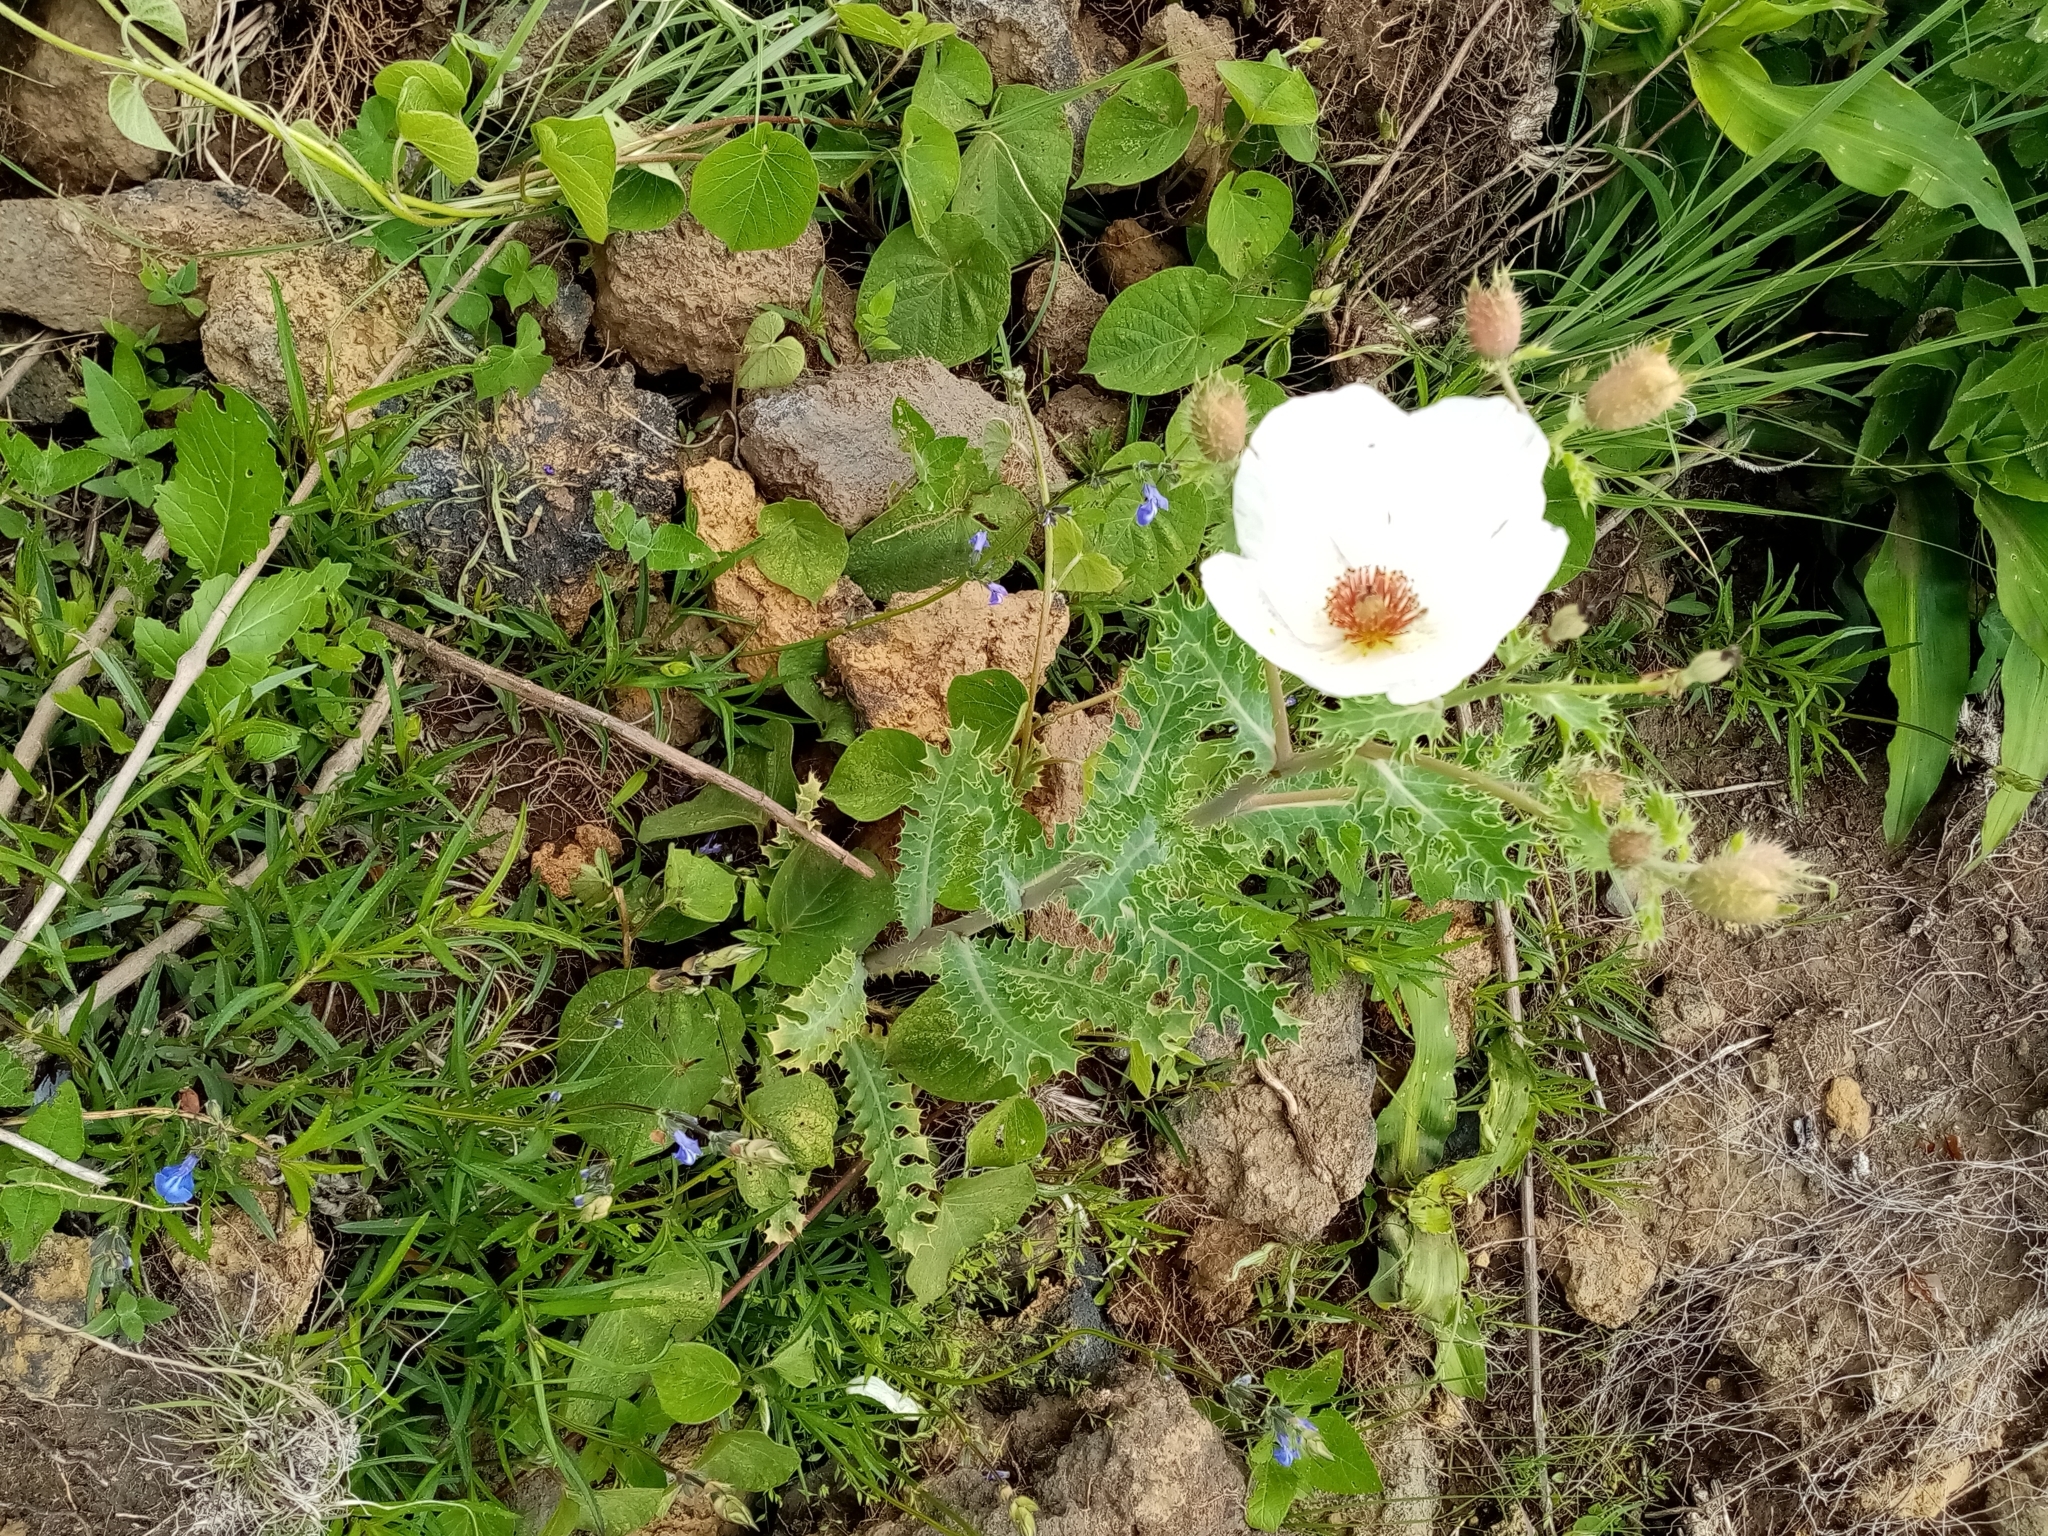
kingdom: Plantae
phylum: Tracheophyta
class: Magnoliopsida
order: Ranunculales
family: Papaveraceae
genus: Argemone
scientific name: Argemone platyceras
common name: Crested-poppy
